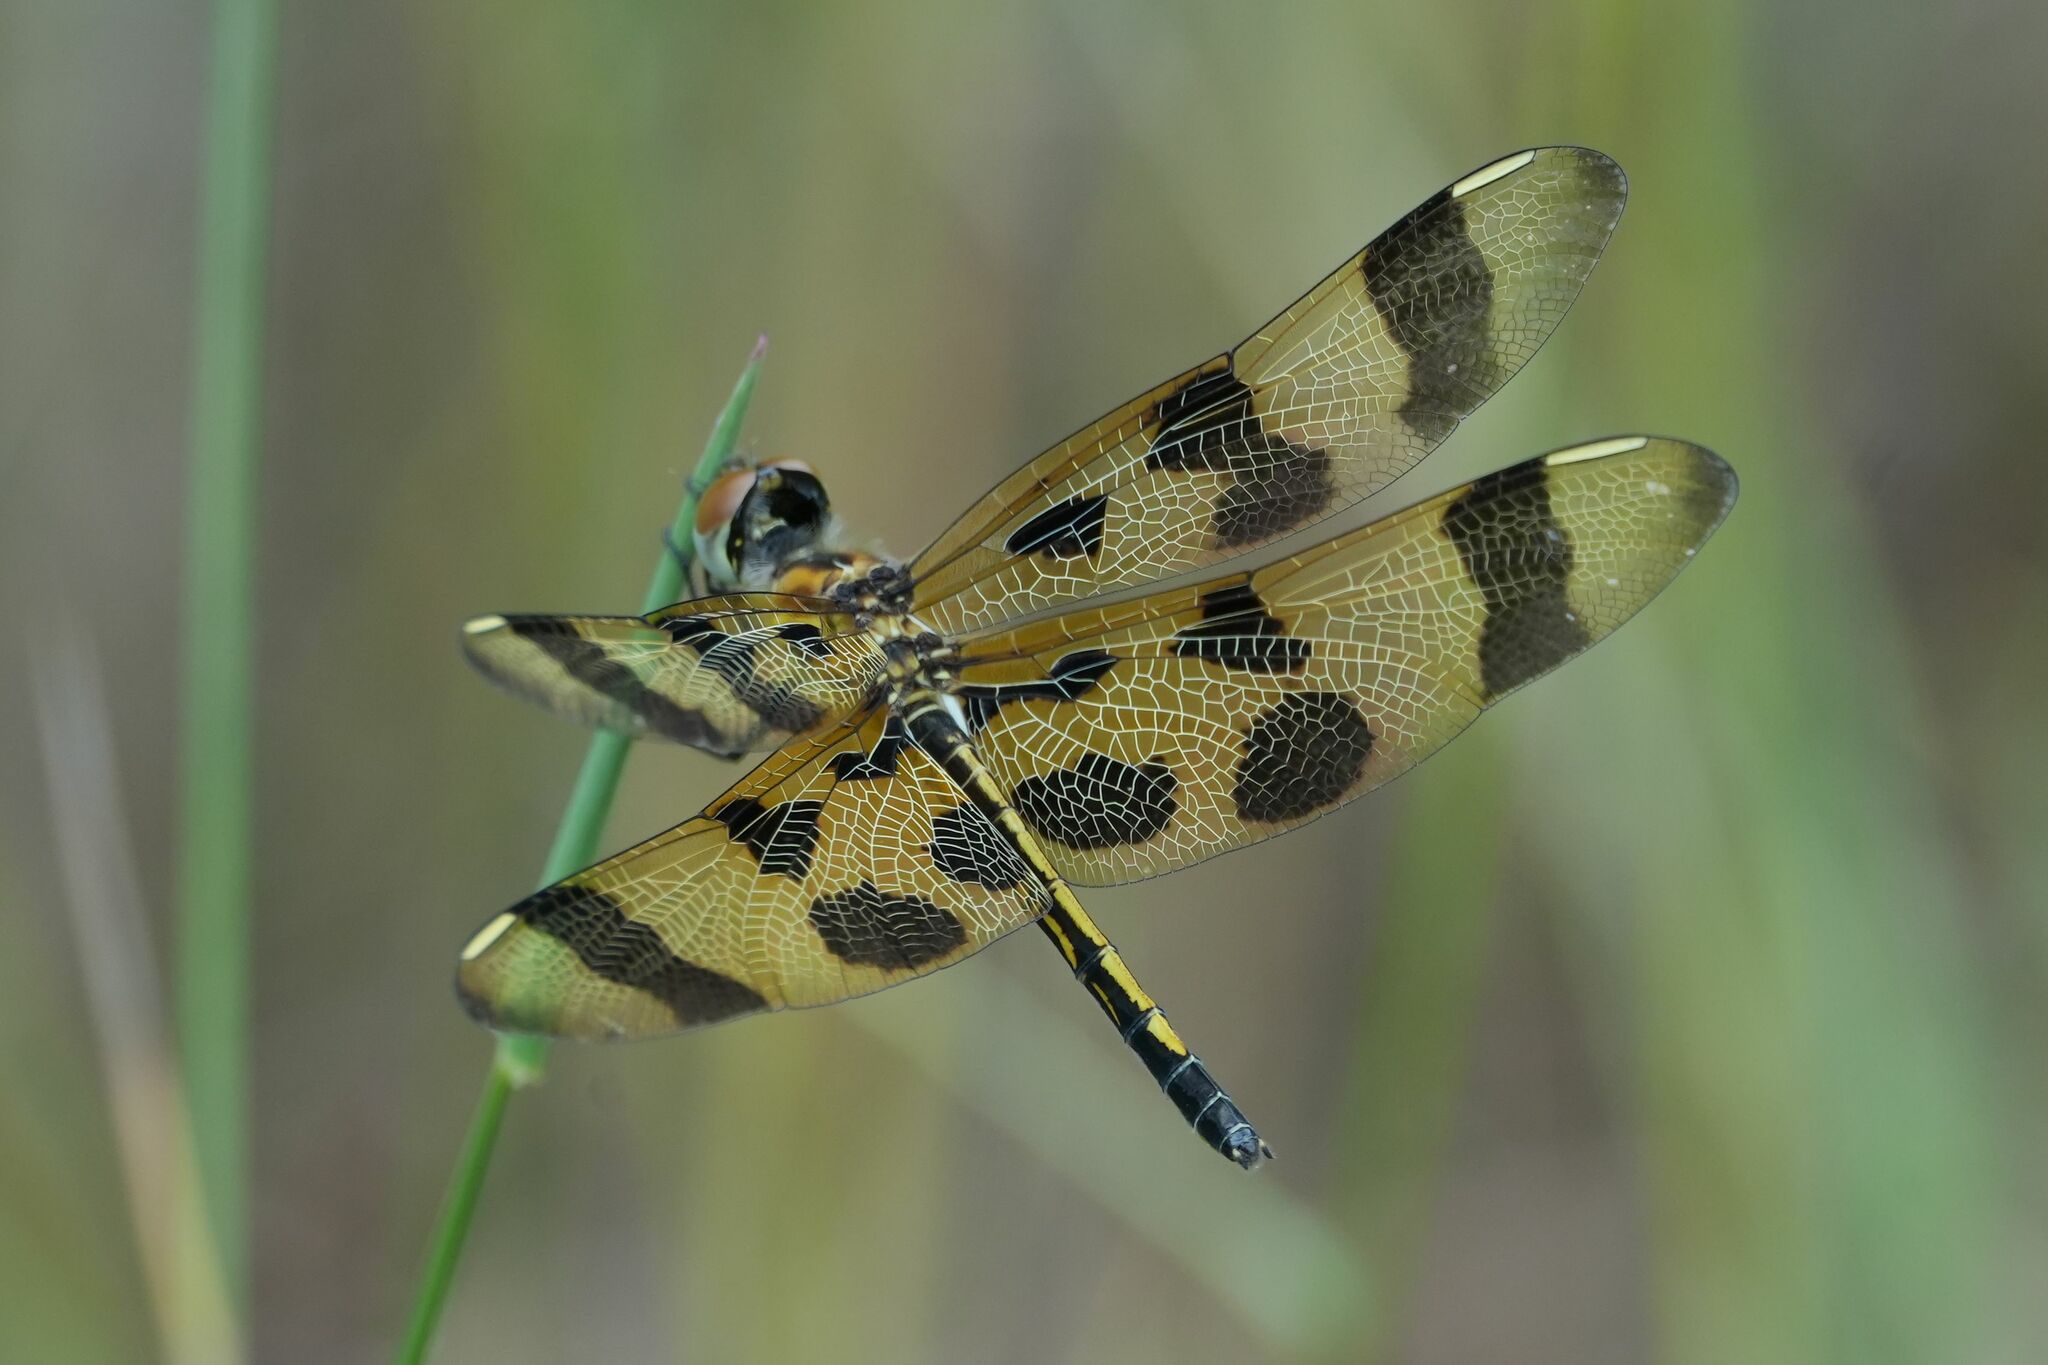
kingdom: Animalia
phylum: Arthropoda
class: Insecta
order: Odonata
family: Libellulidae
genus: Celithemis
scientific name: Celithemis eponina
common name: Halloween pennant
